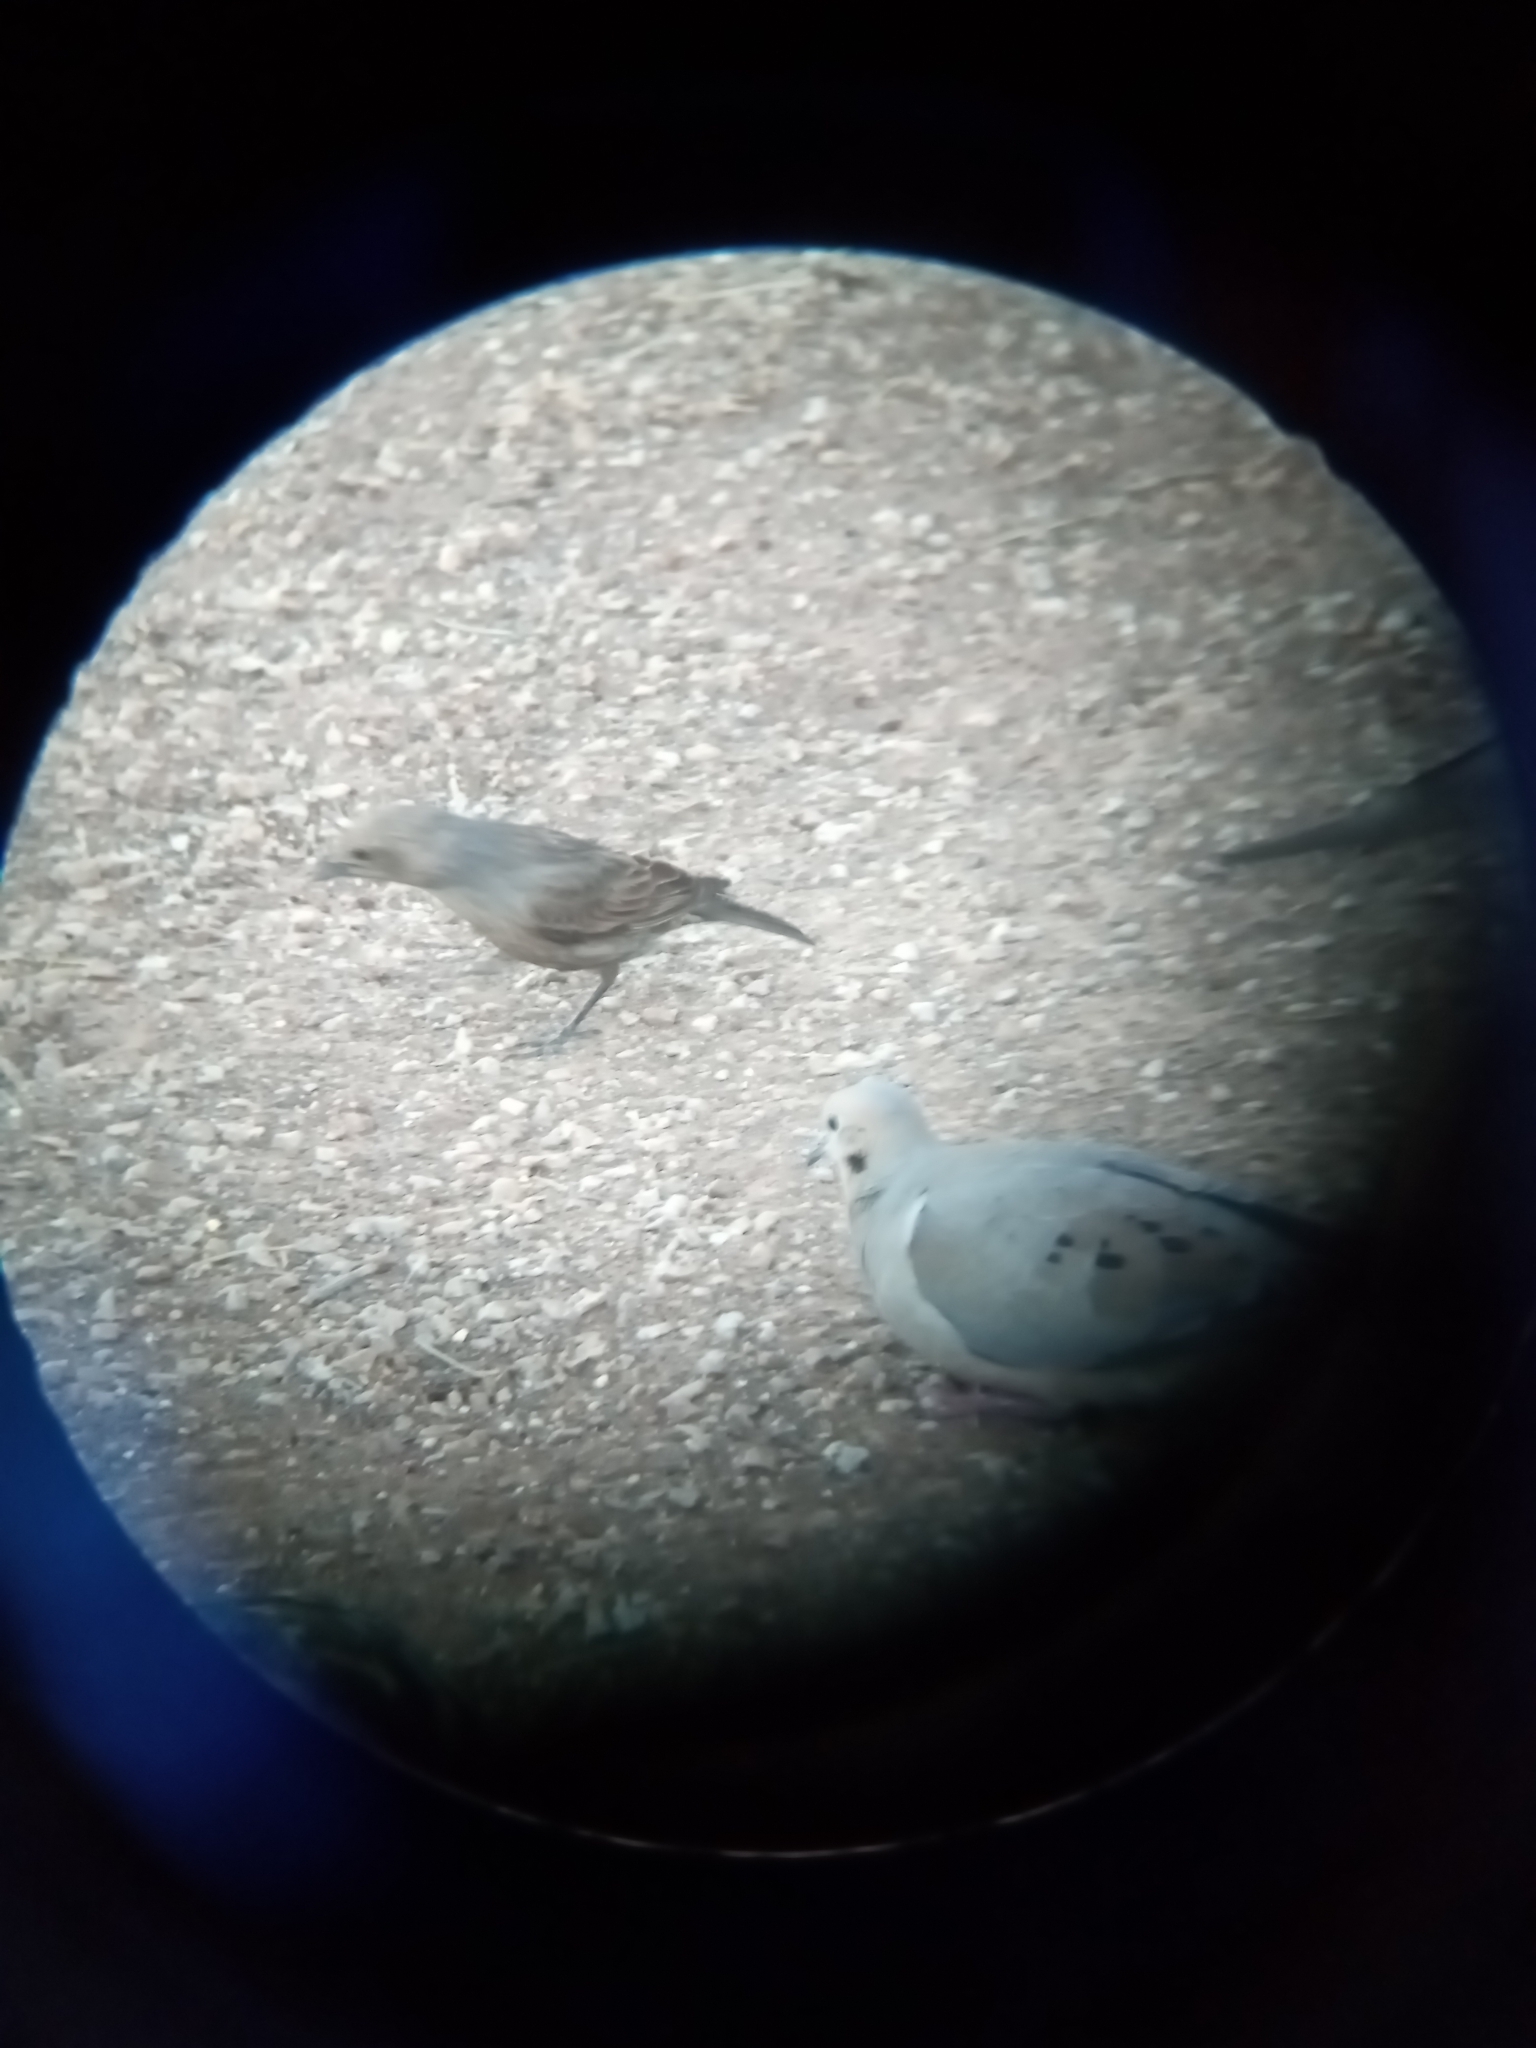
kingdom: Animalia
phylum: Chordata
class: Aves
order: Passeriformes
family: Icteridae
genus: Molothrus
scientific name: Molothrus ater
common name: Brown-headed cowbird
